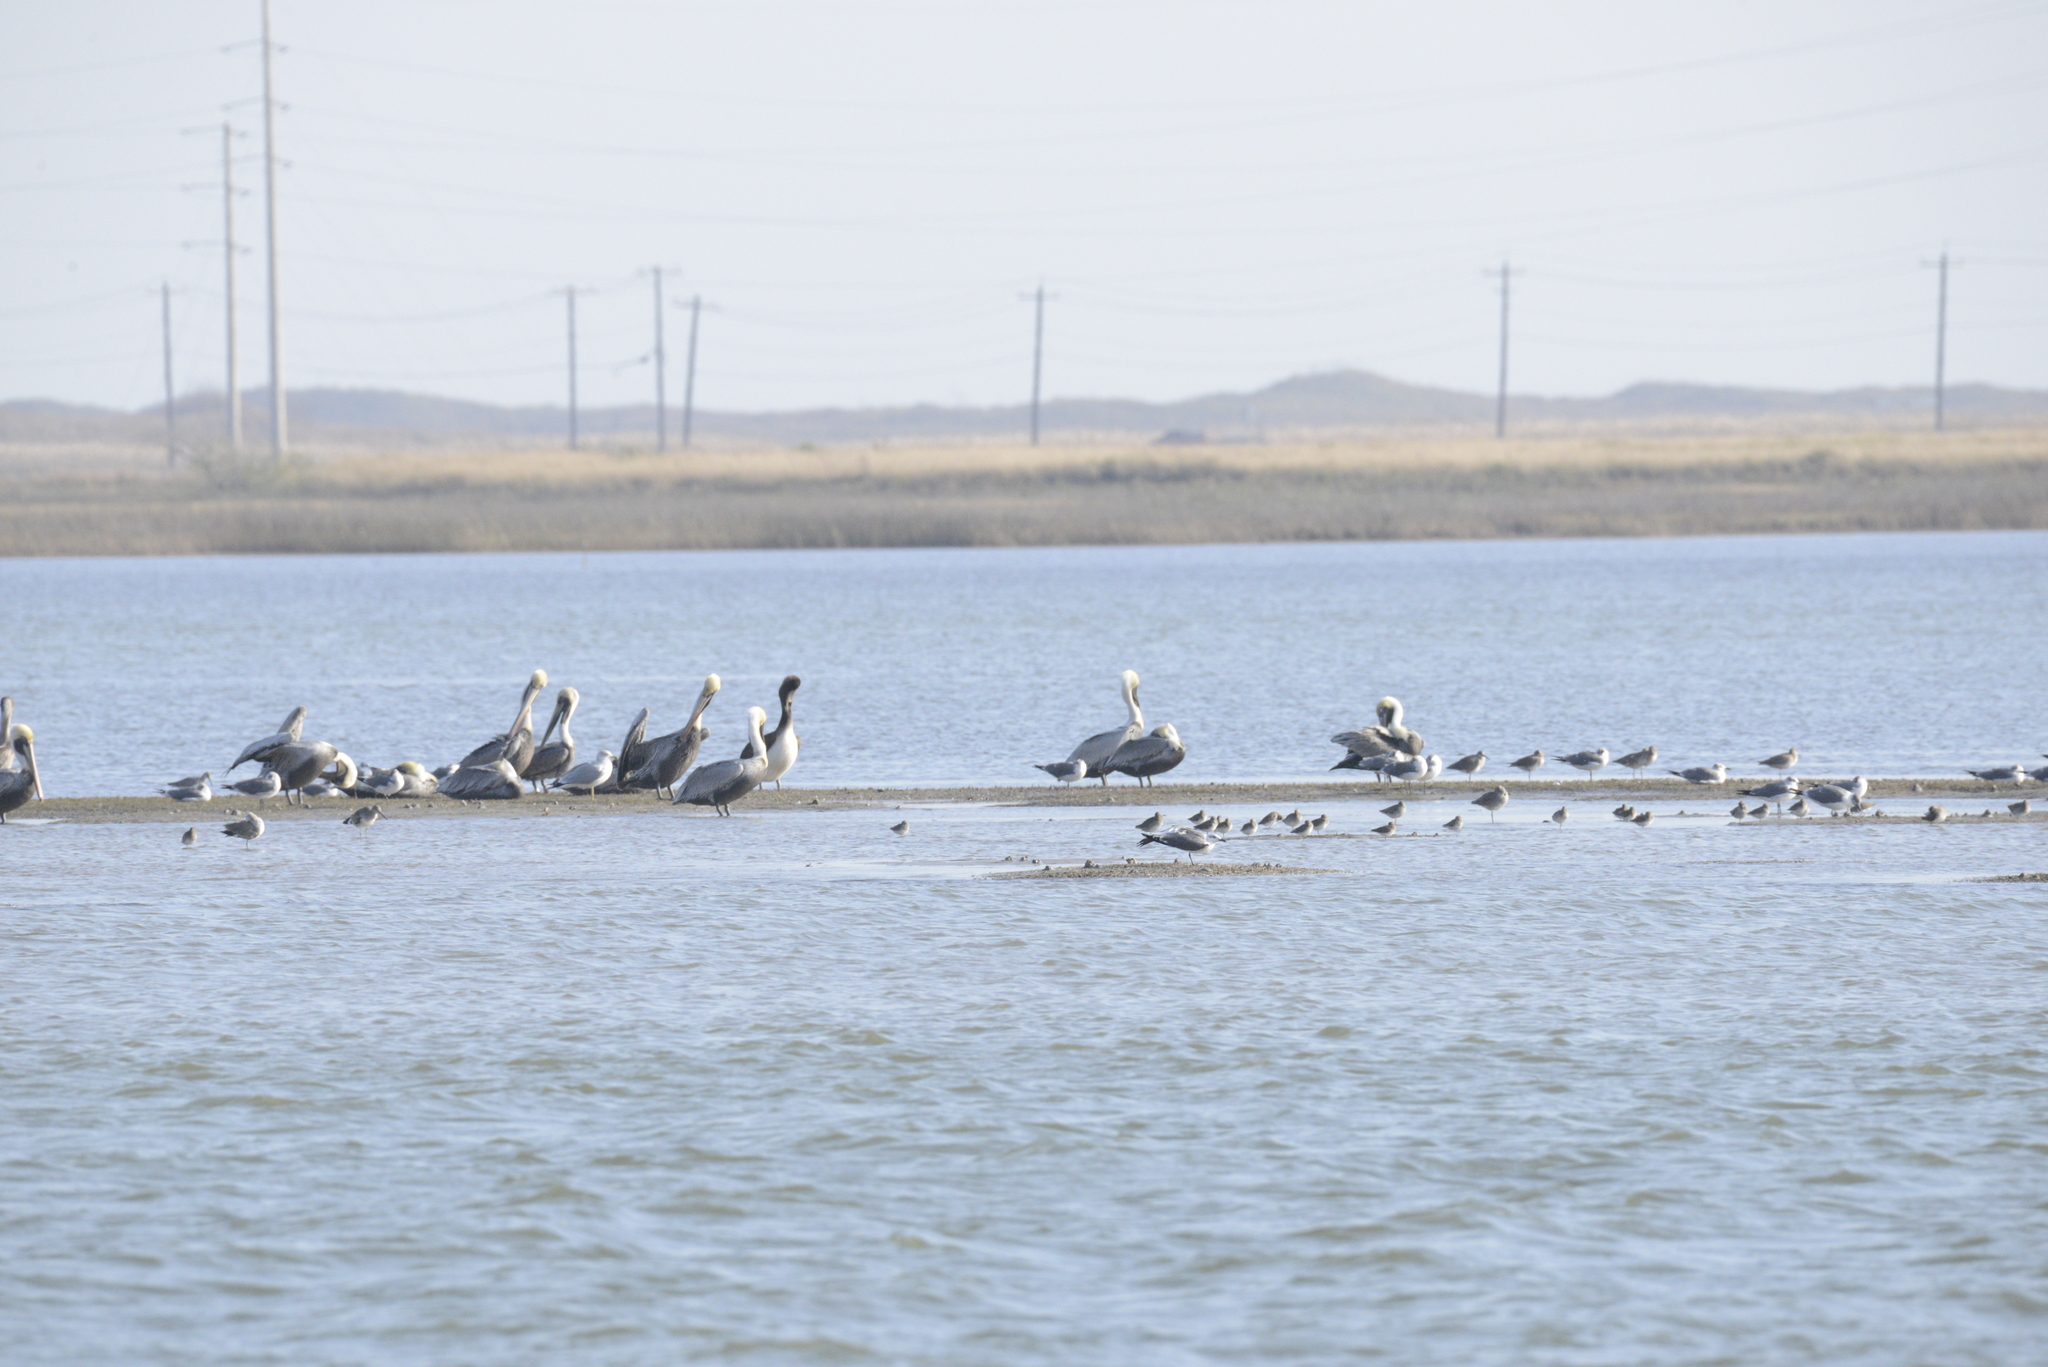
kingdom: Animalia
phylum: Chordata
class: Aves
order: Pelecaniformes
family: Pelecanidae
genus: Pelecanus
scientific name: Pelecanus occidentalis
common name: Brown pelican
